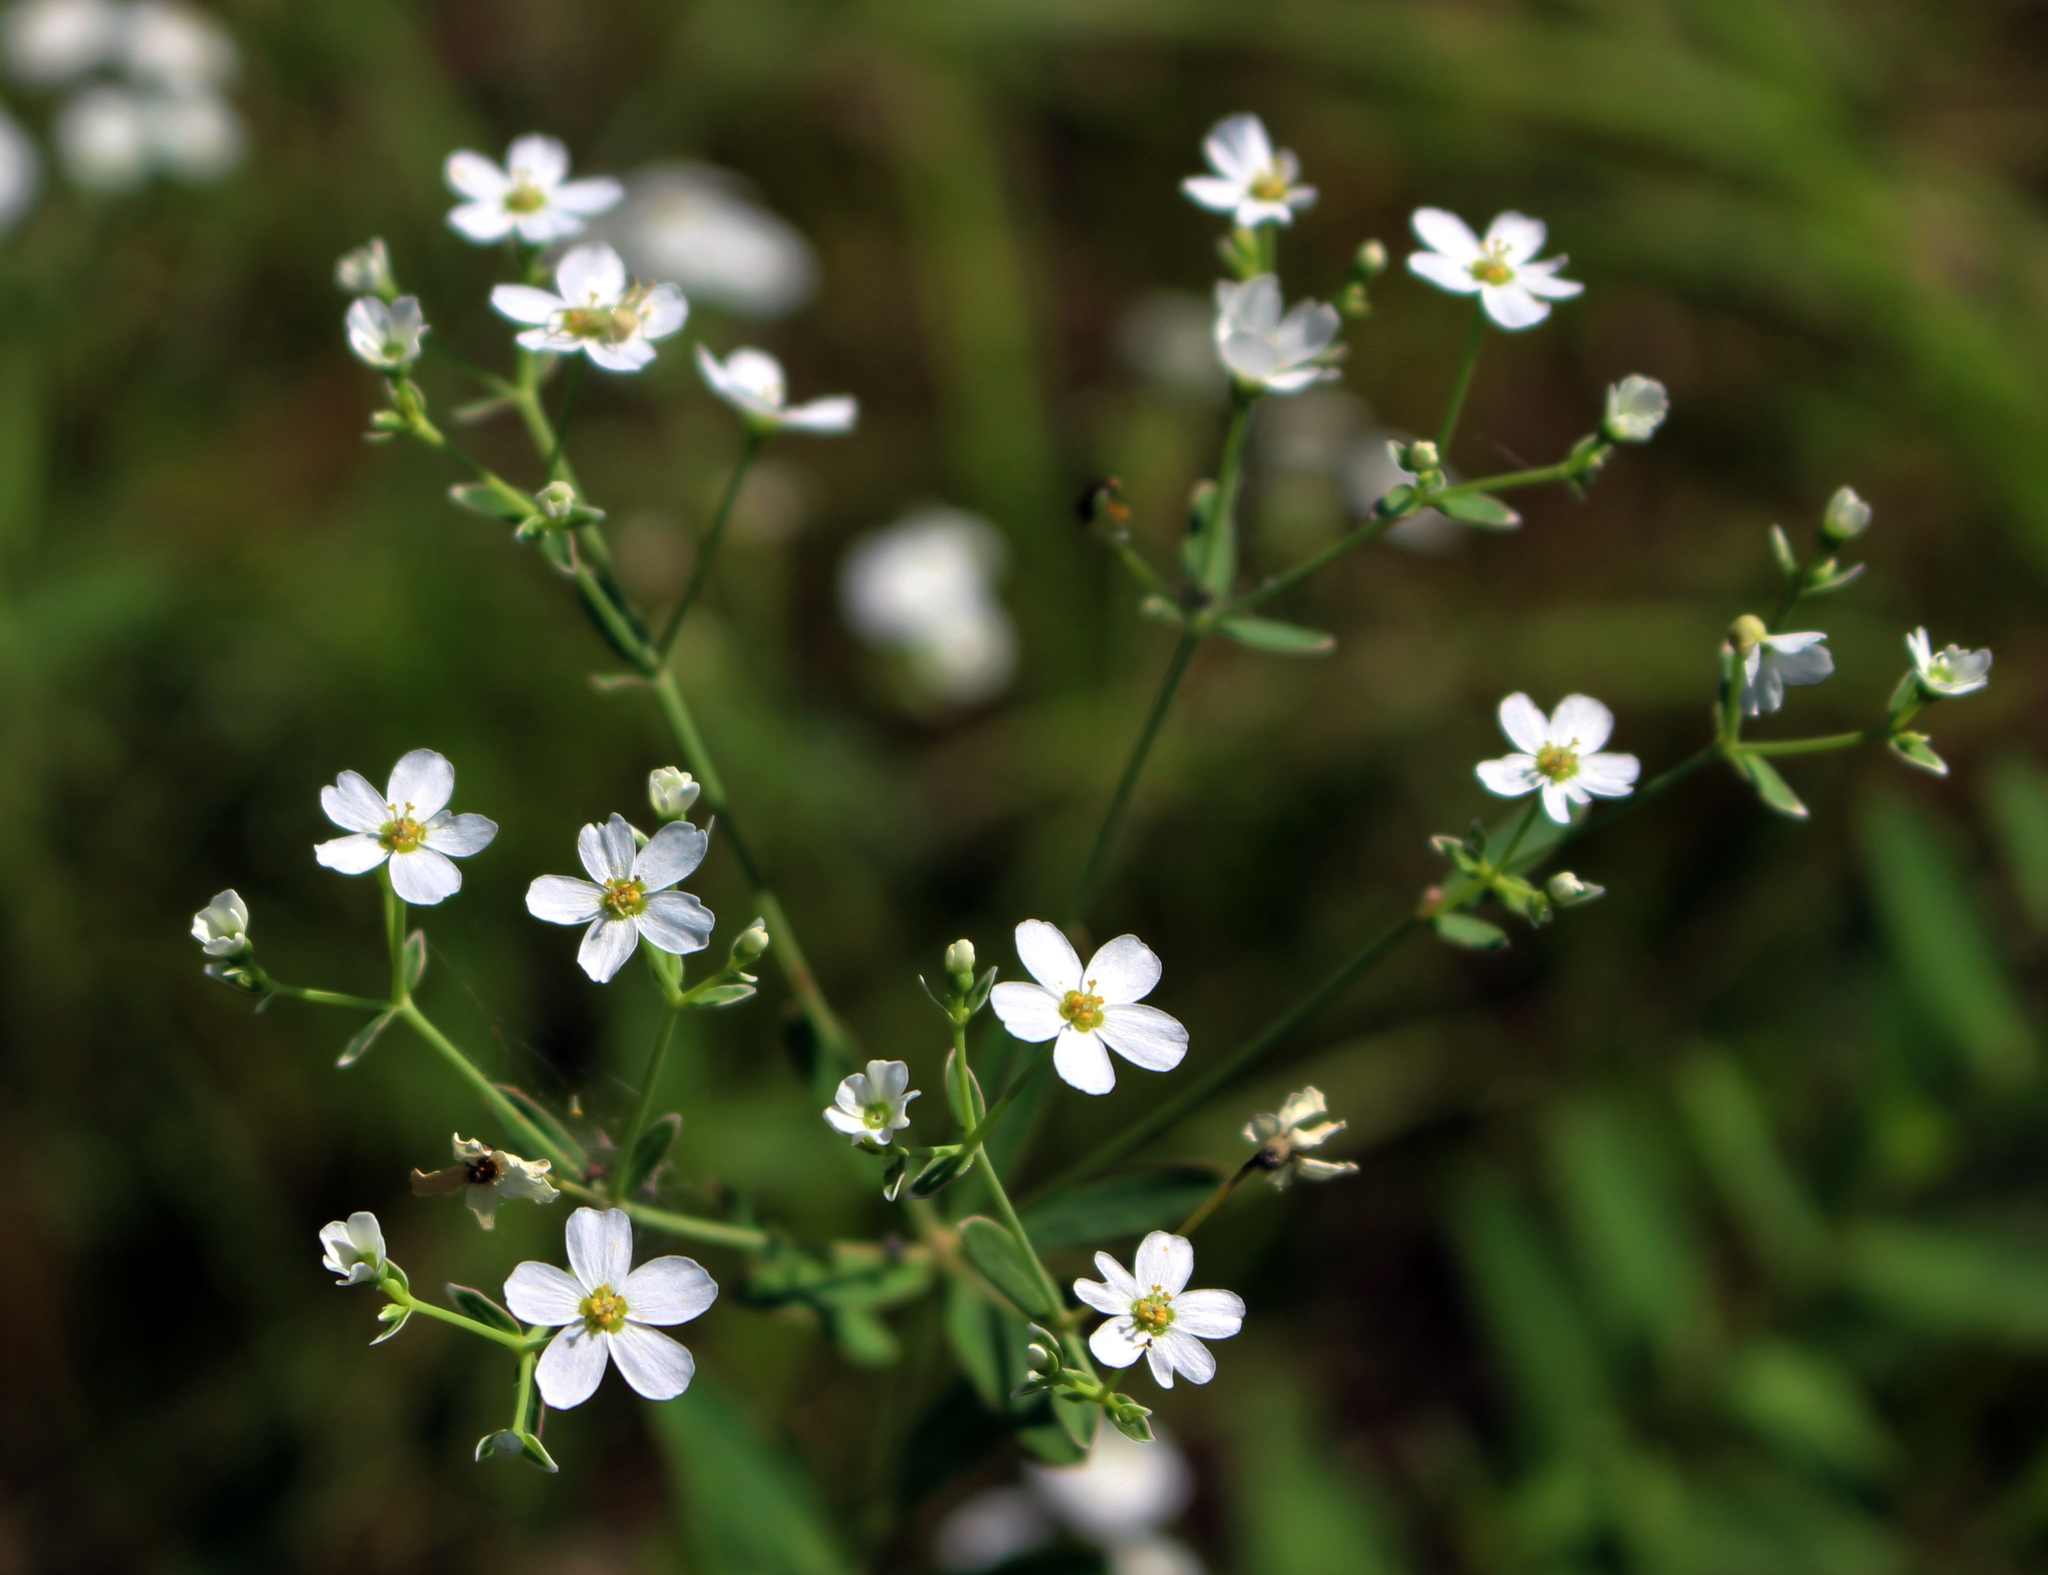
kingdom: Plantae
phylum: Tracheophyta
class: Magnoliopsida
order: Malpighiales
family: Euphorbiaceae
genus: Euphorbia
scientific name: Euphorbia corollata
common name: Flowering spurge
